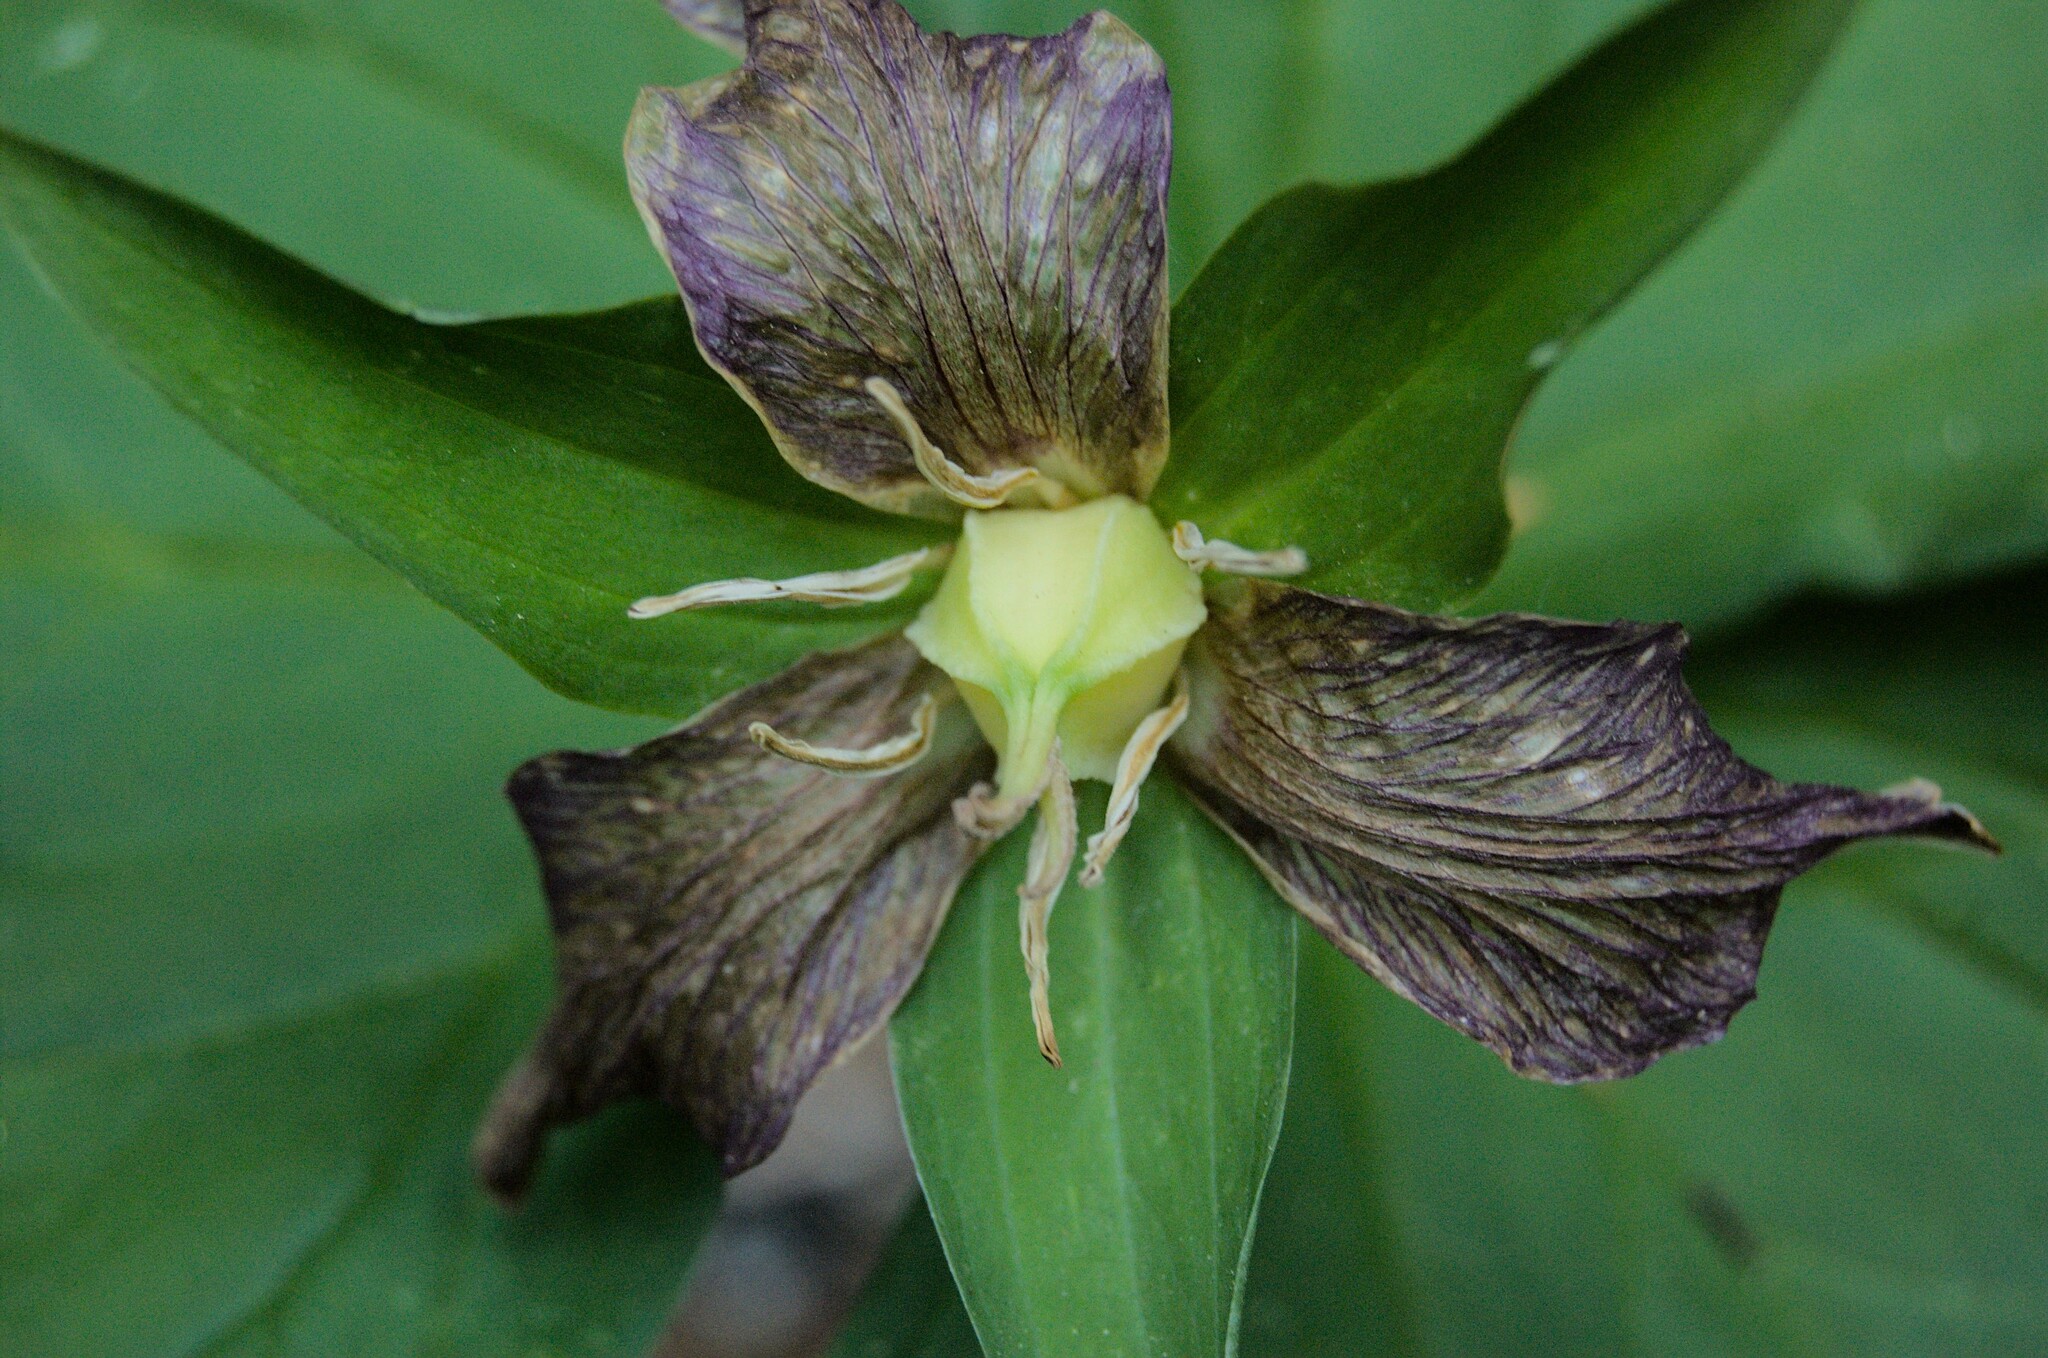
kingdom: Plantae
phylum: Tracheophyta
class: Liliopsida
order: Liliales
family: Melanthiaceae
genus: Trillium
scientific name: Trillium ovatum
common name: Pacific trillium
